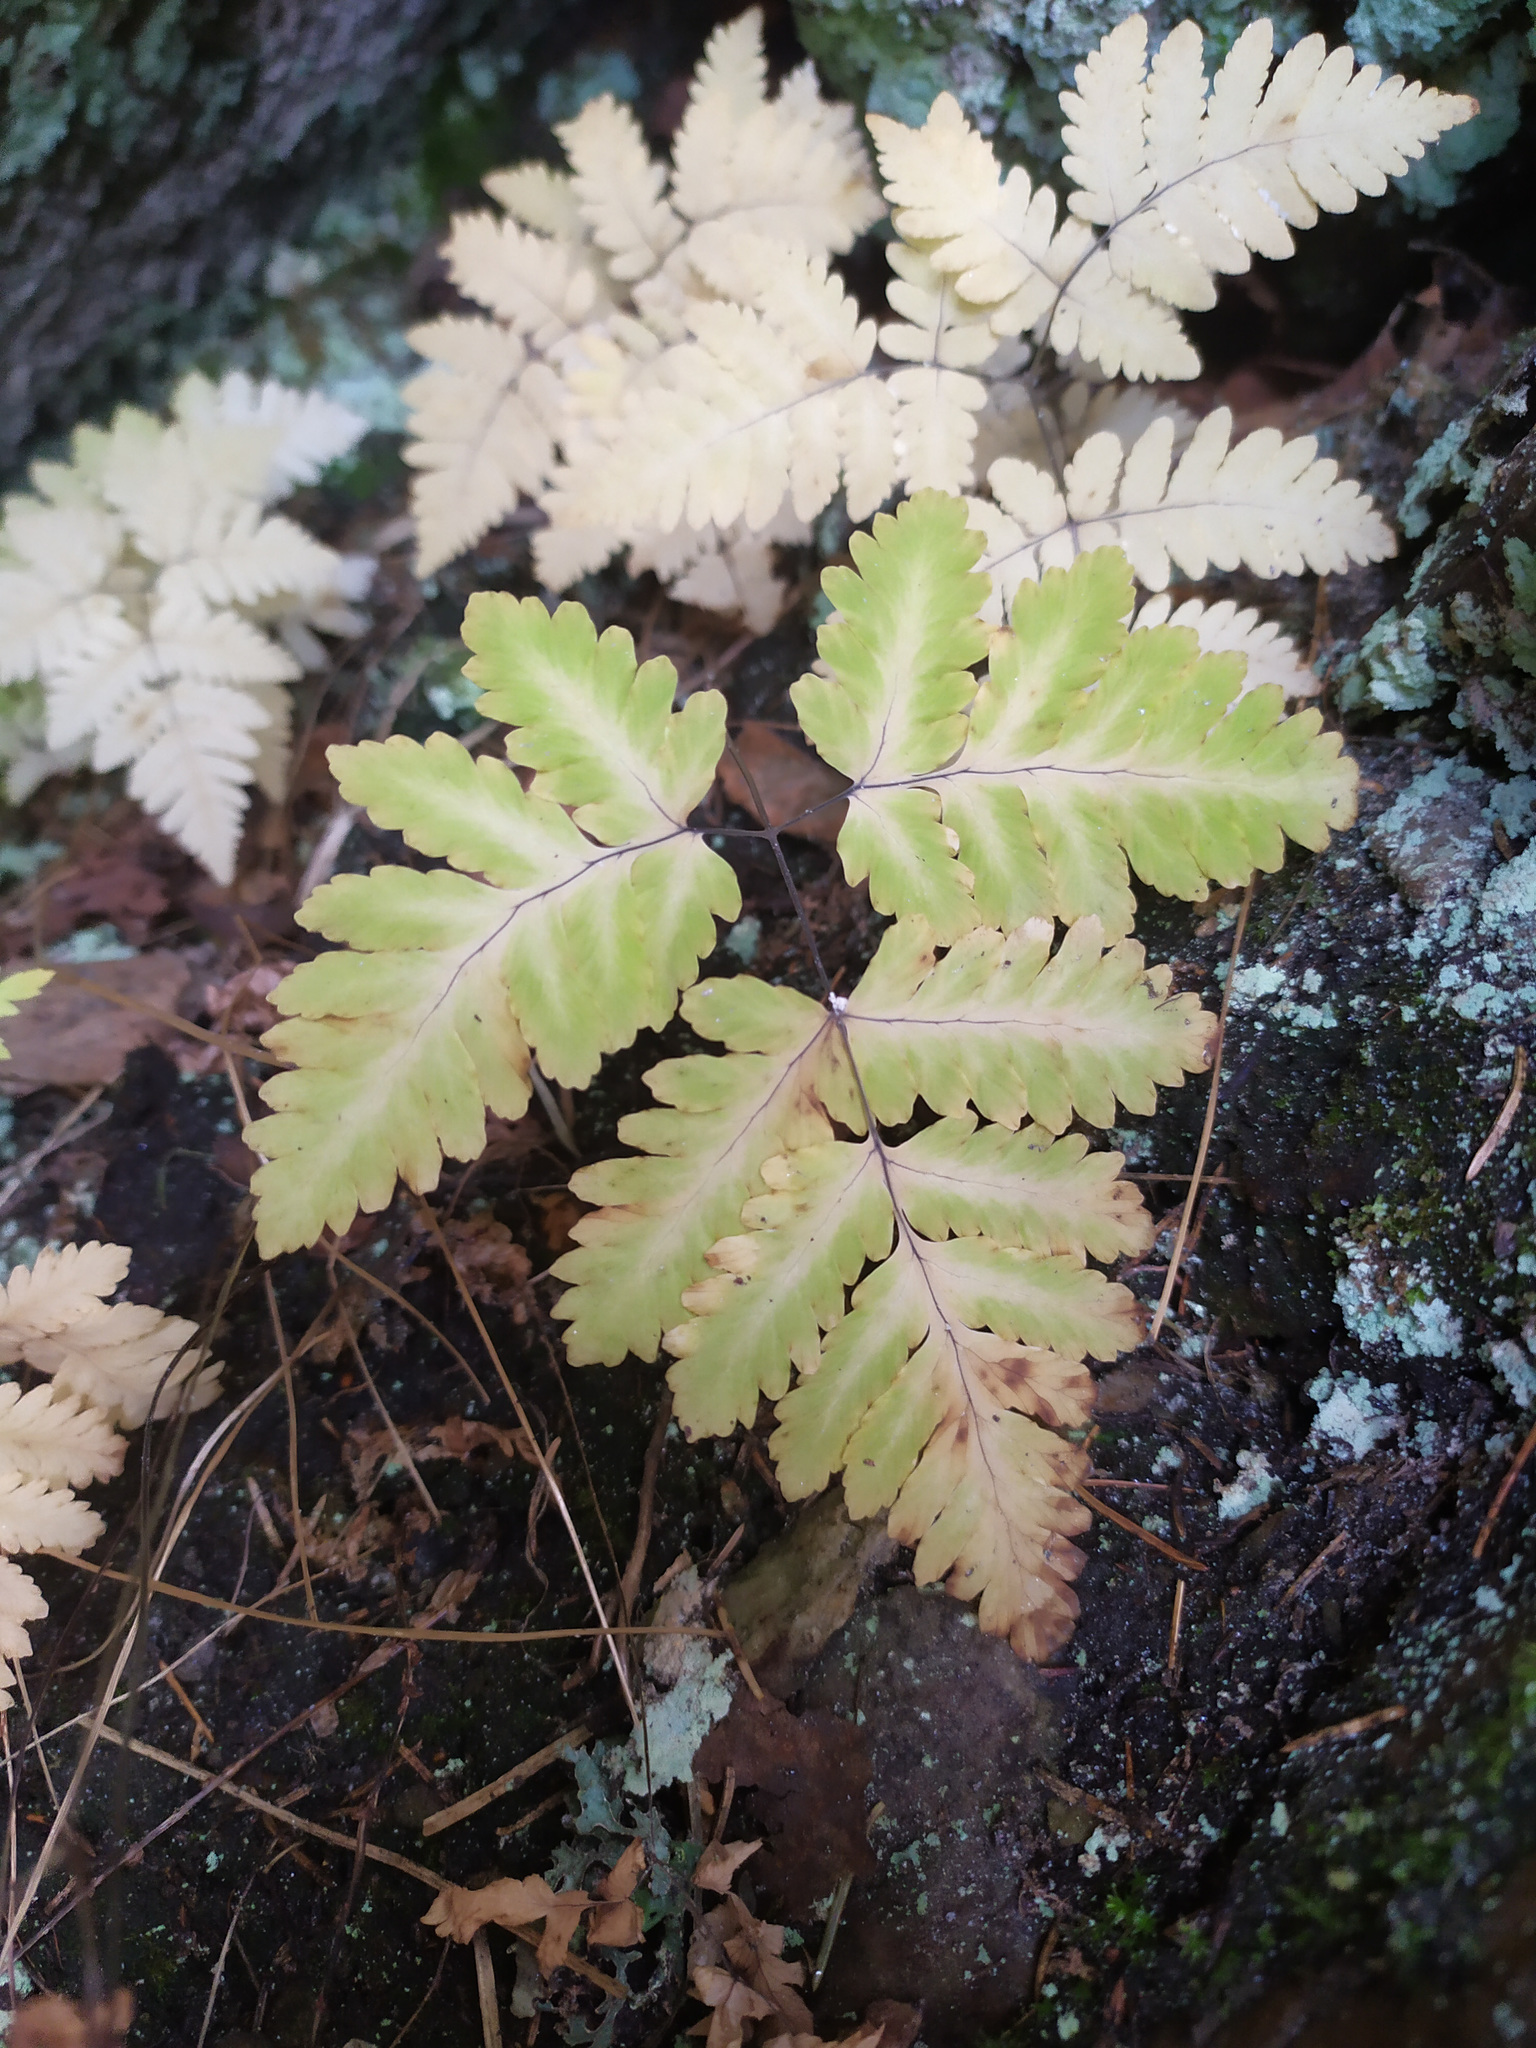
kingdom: Plantae
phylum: Tracheophyta
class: Polypodiopsida
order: Polypodiales
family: Cystopteridaceae
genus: Gymnocarpium
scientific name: Gymnocarpium dryopteris
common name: Oak fern
